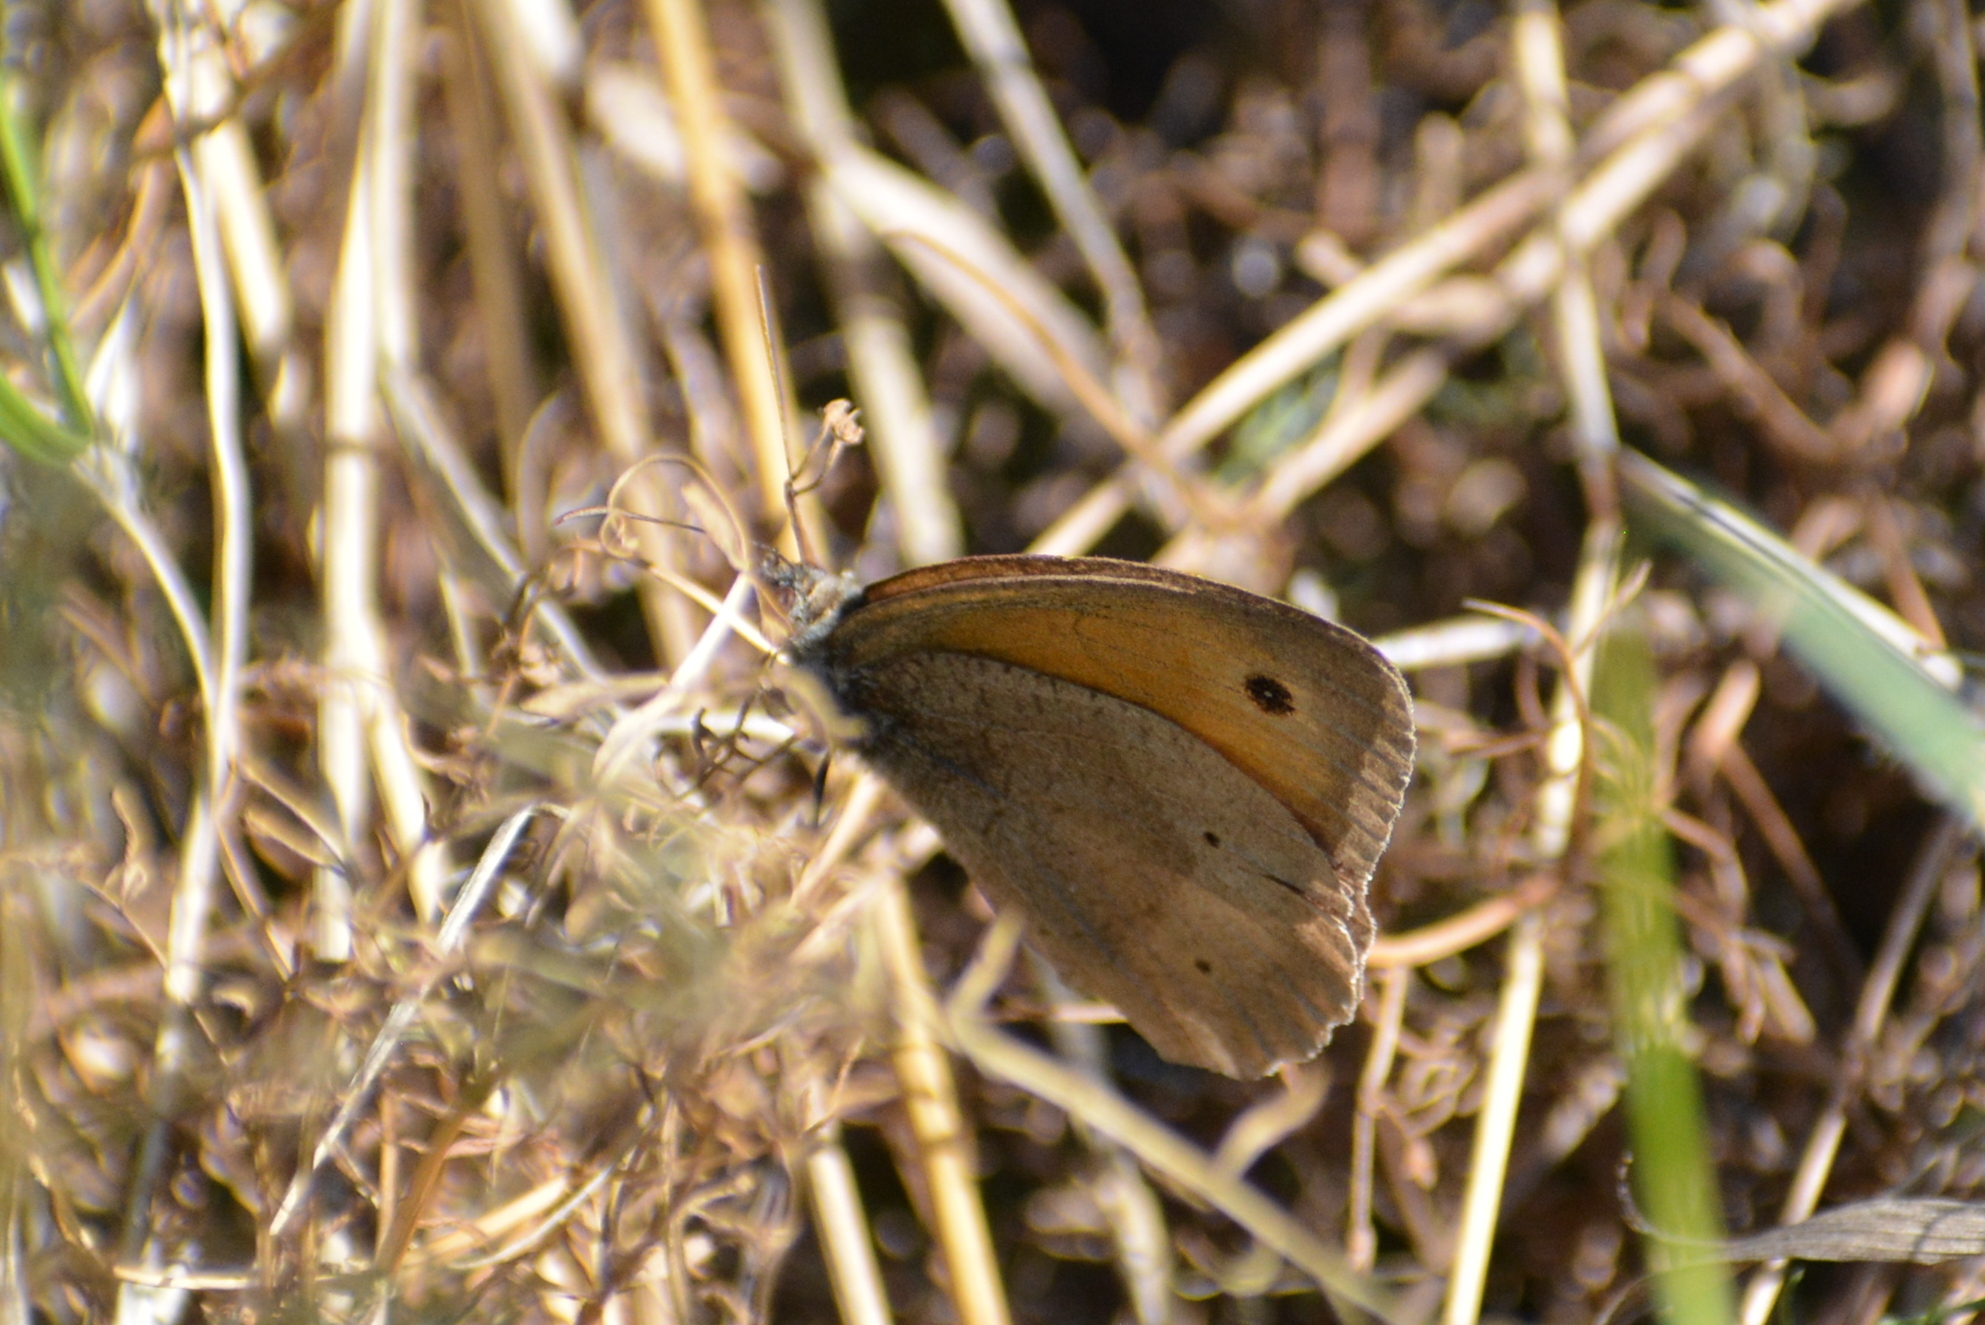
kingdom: Animalia
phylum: Arthropoda
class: Insecta
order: Lepidoptera
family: Nymphalidae
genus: Maniola
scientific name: Maniola jurtina
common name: Meadow brown
